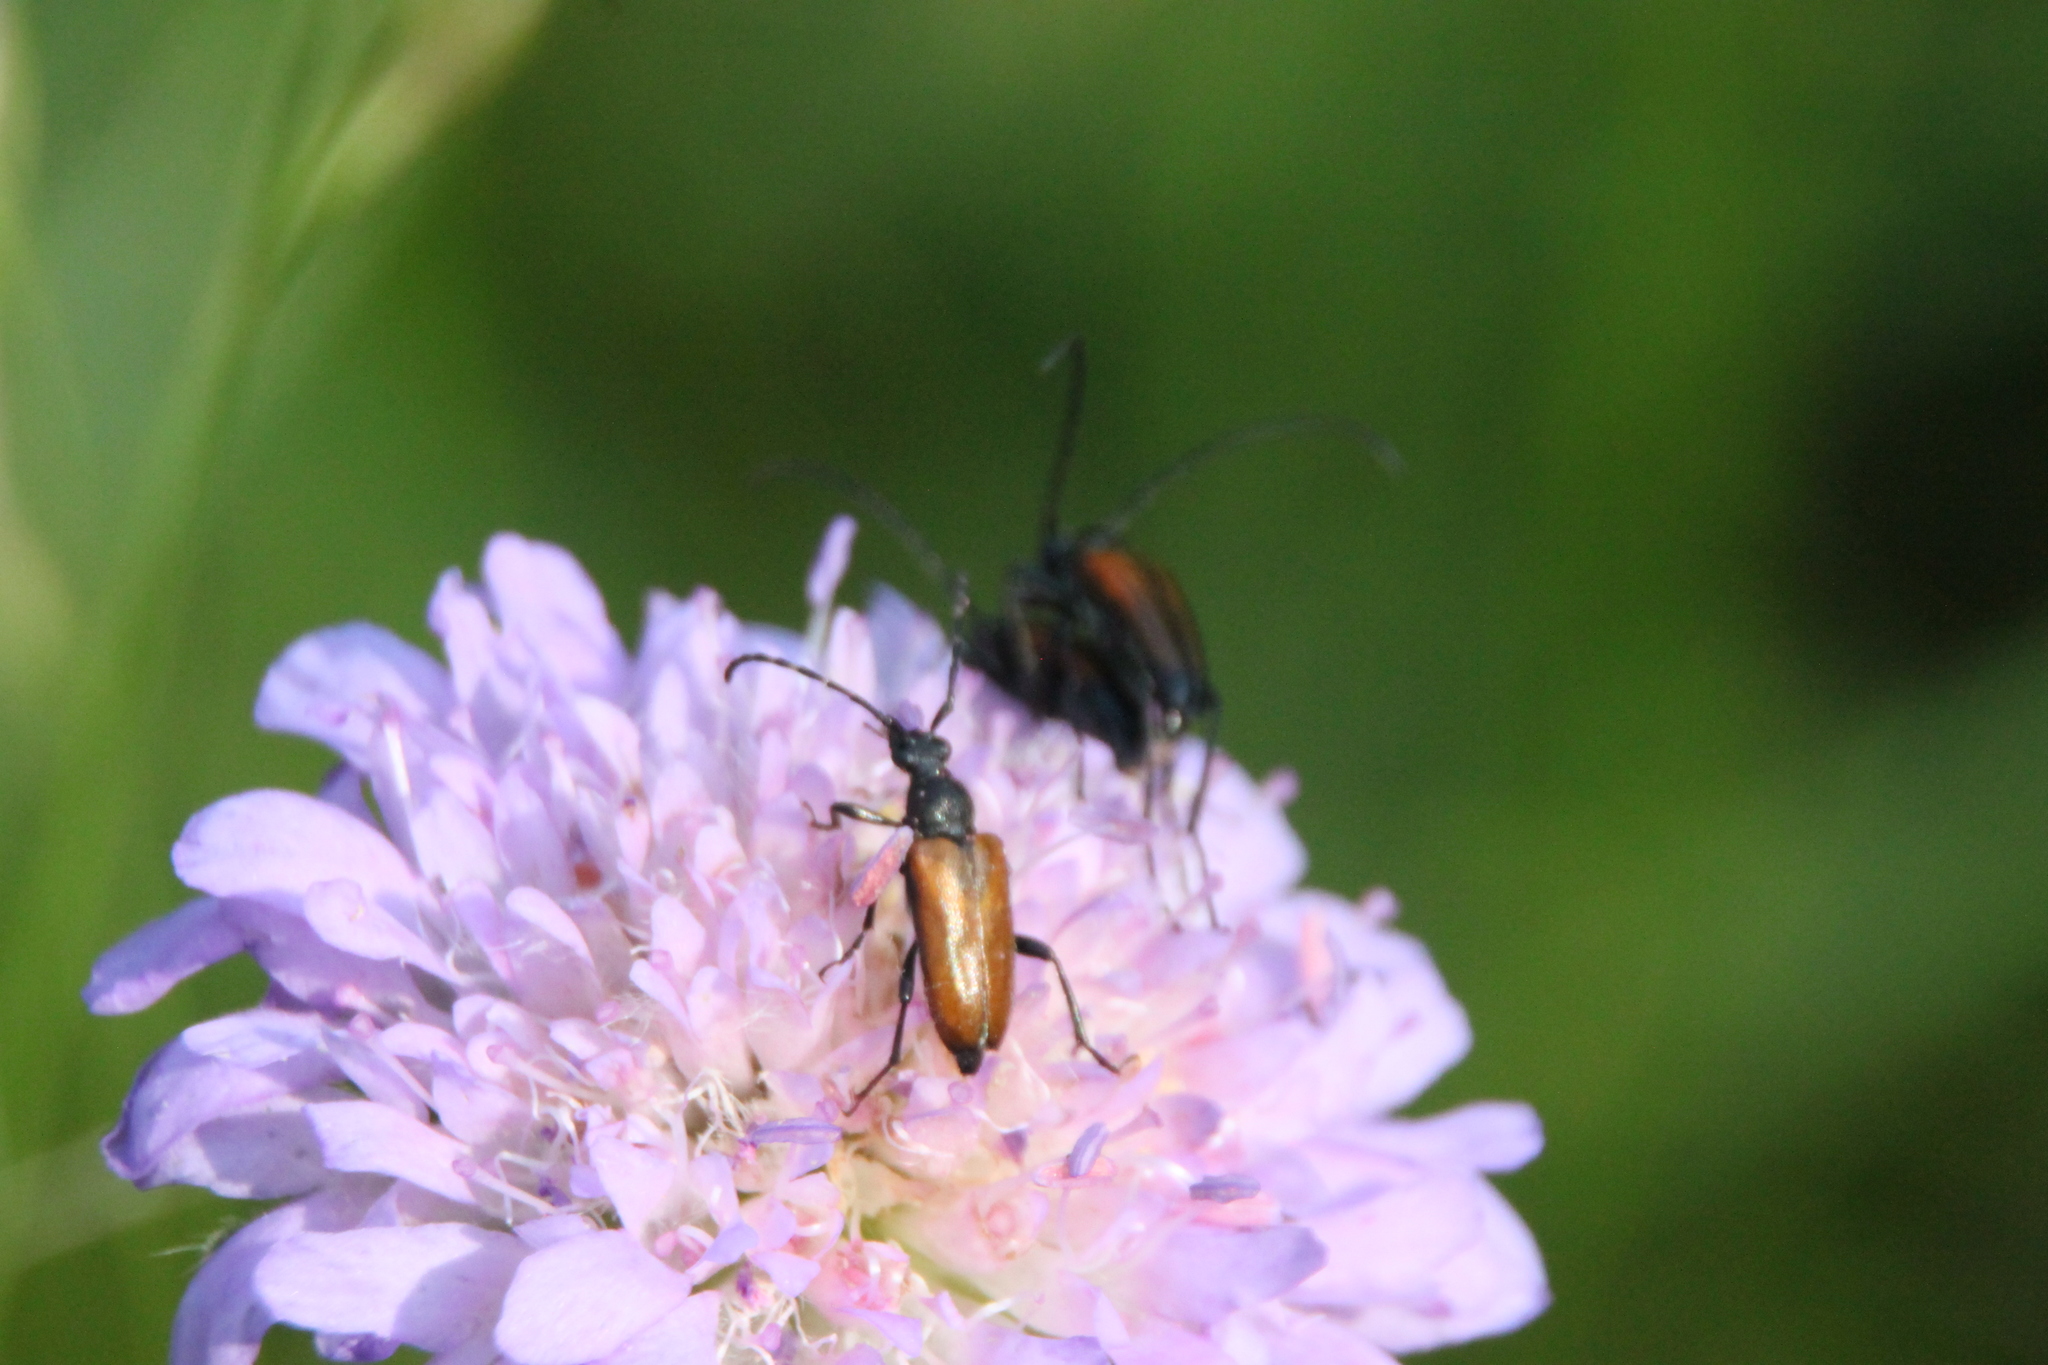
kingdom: Animalia
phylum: Arthropoda
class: Insecta
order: Coleoptera
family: Cerambycidae
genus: Stenurella
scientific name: Stenurella melanura
